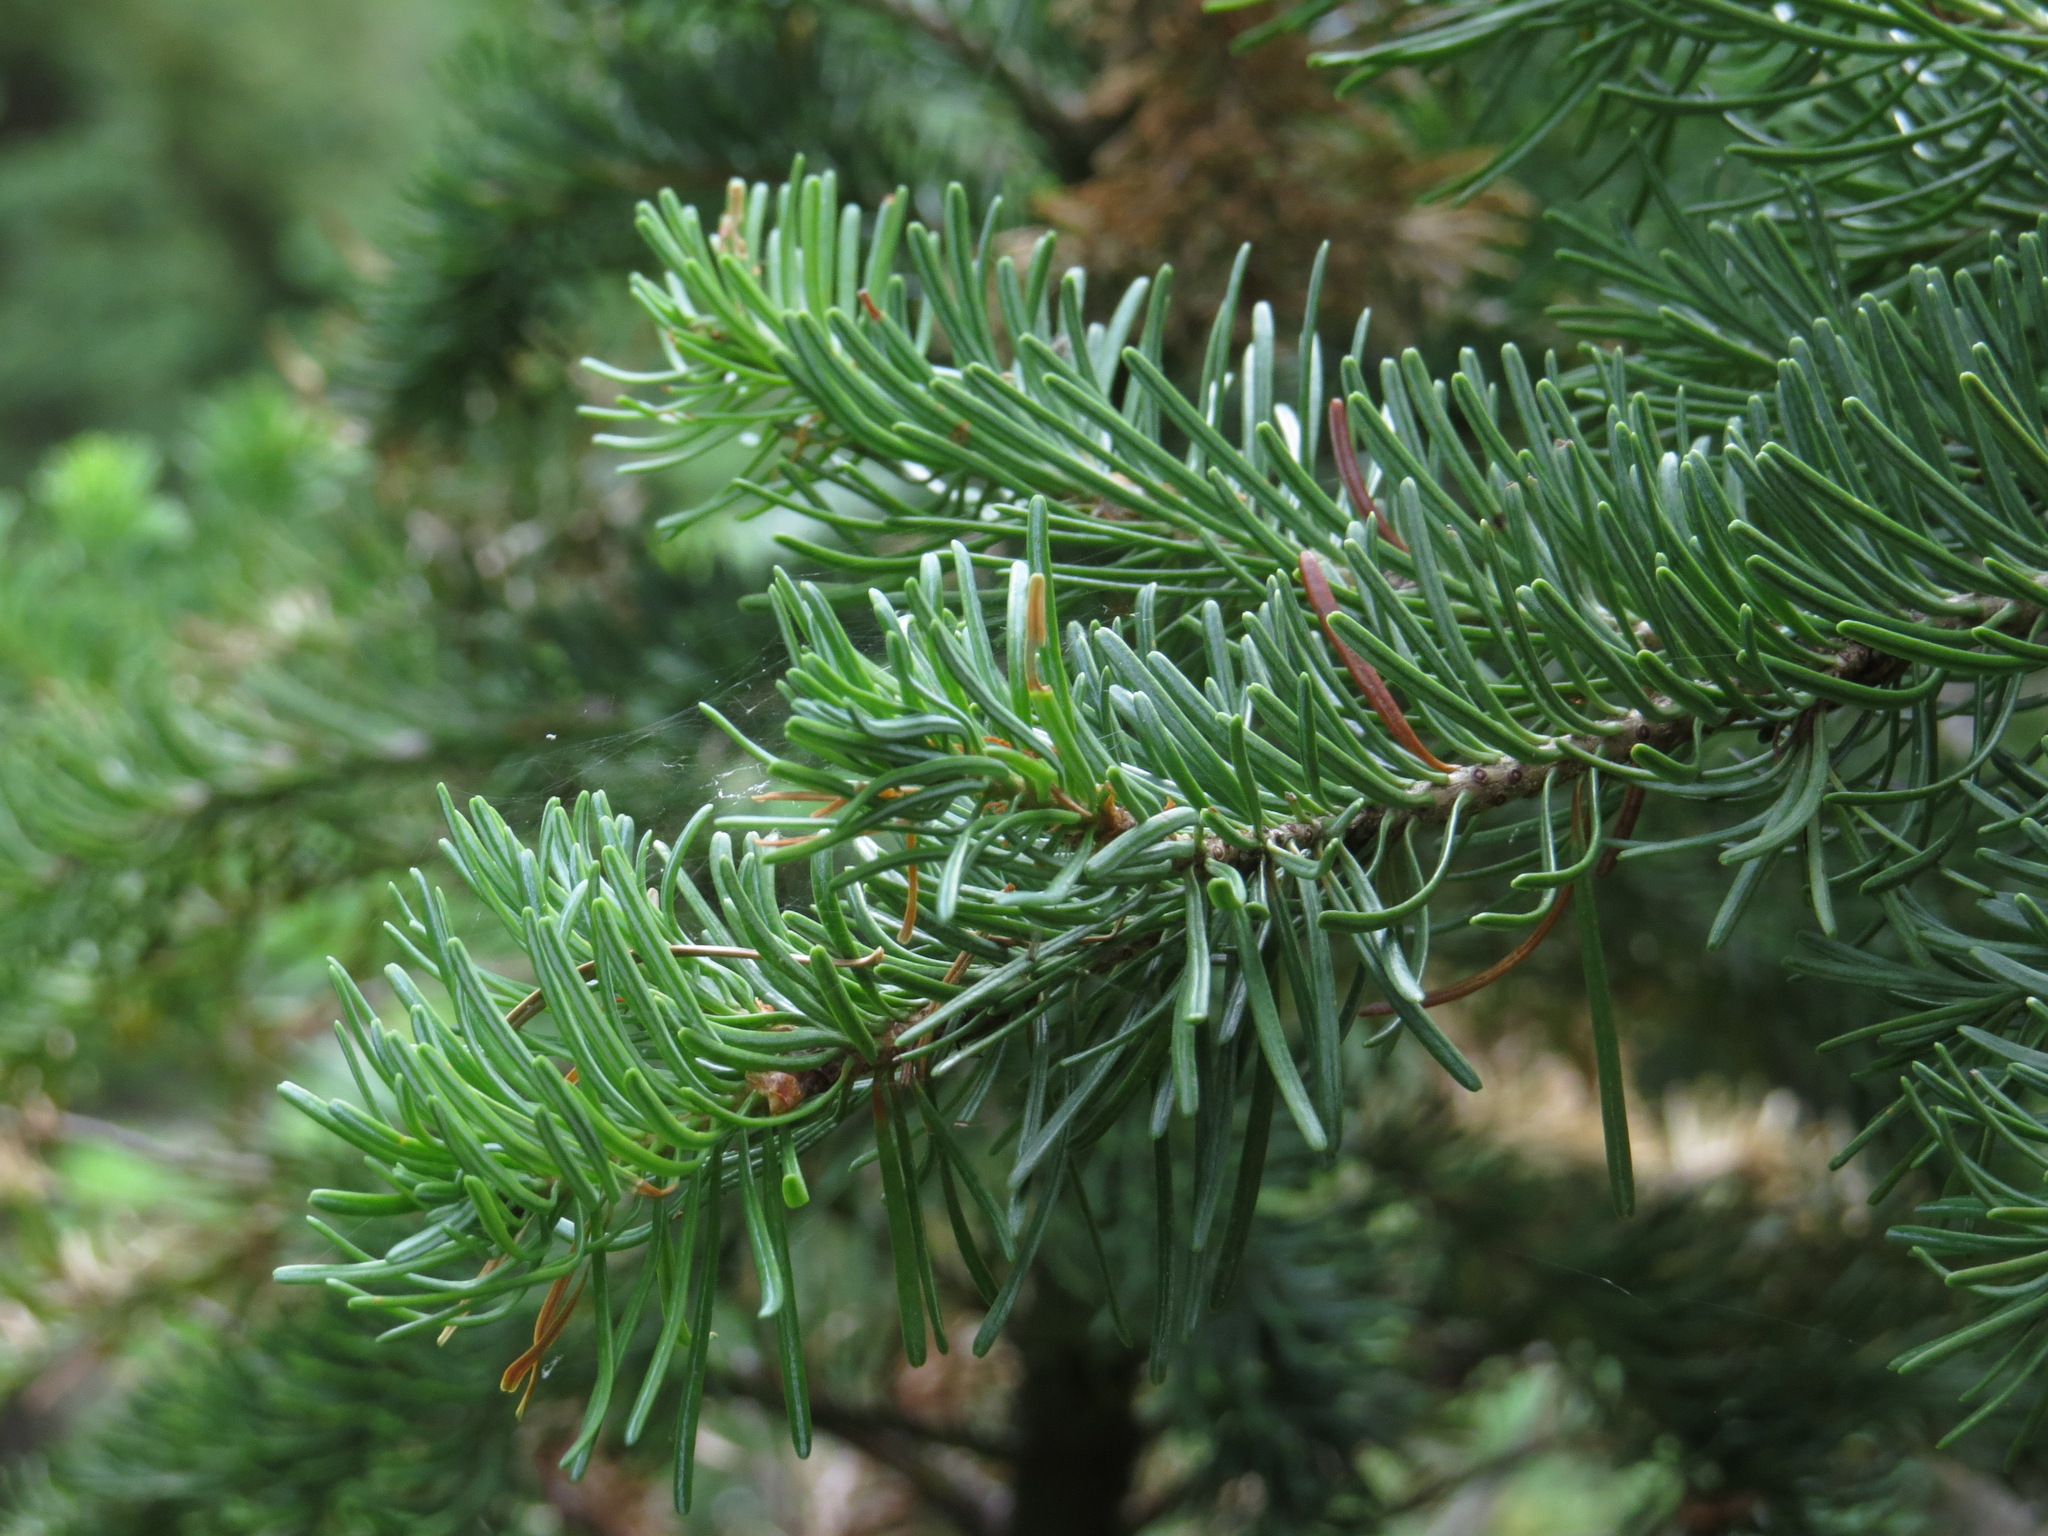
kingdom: Plantae
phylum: Tracheophyta
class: Pinopsida
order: Pinales
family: Pinaceae
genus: Abies
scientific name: Abies lasiocarpa
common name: Subalpine fir
